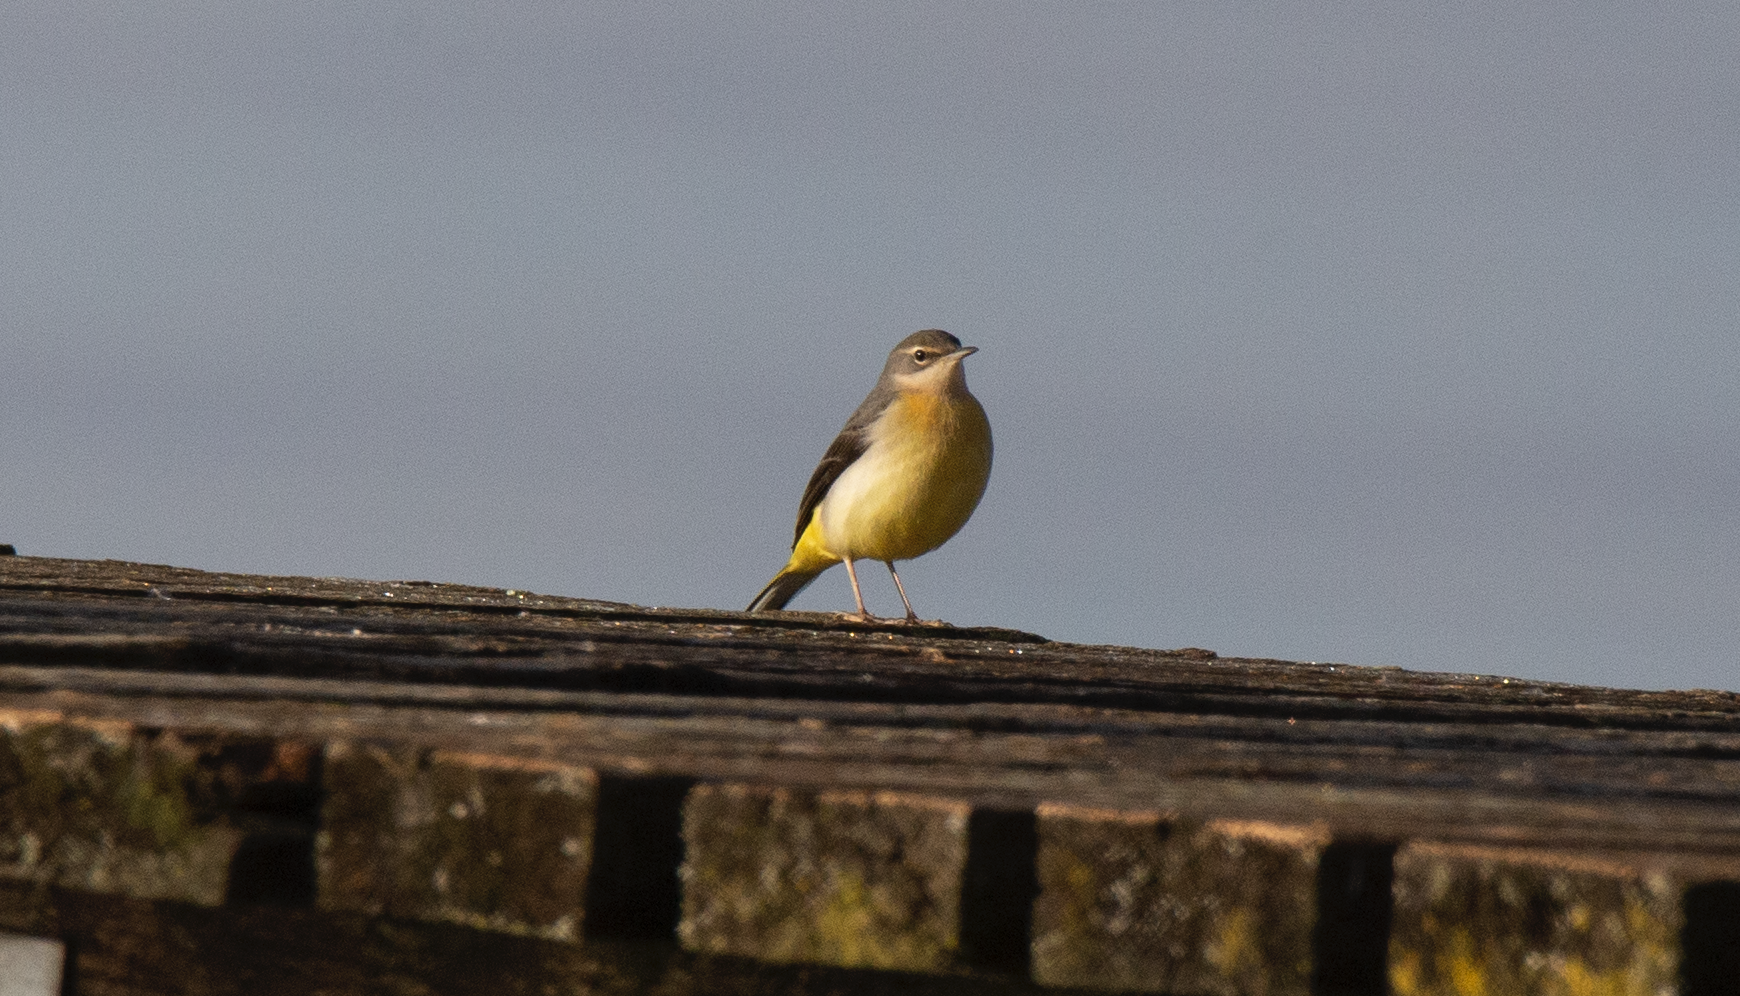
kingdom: Animalia
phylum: Chordata
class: Aves
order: Passeriformes
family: Motacillidae
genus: Motacilla
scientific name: Motacilla cinerea
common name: Grey wagtail
